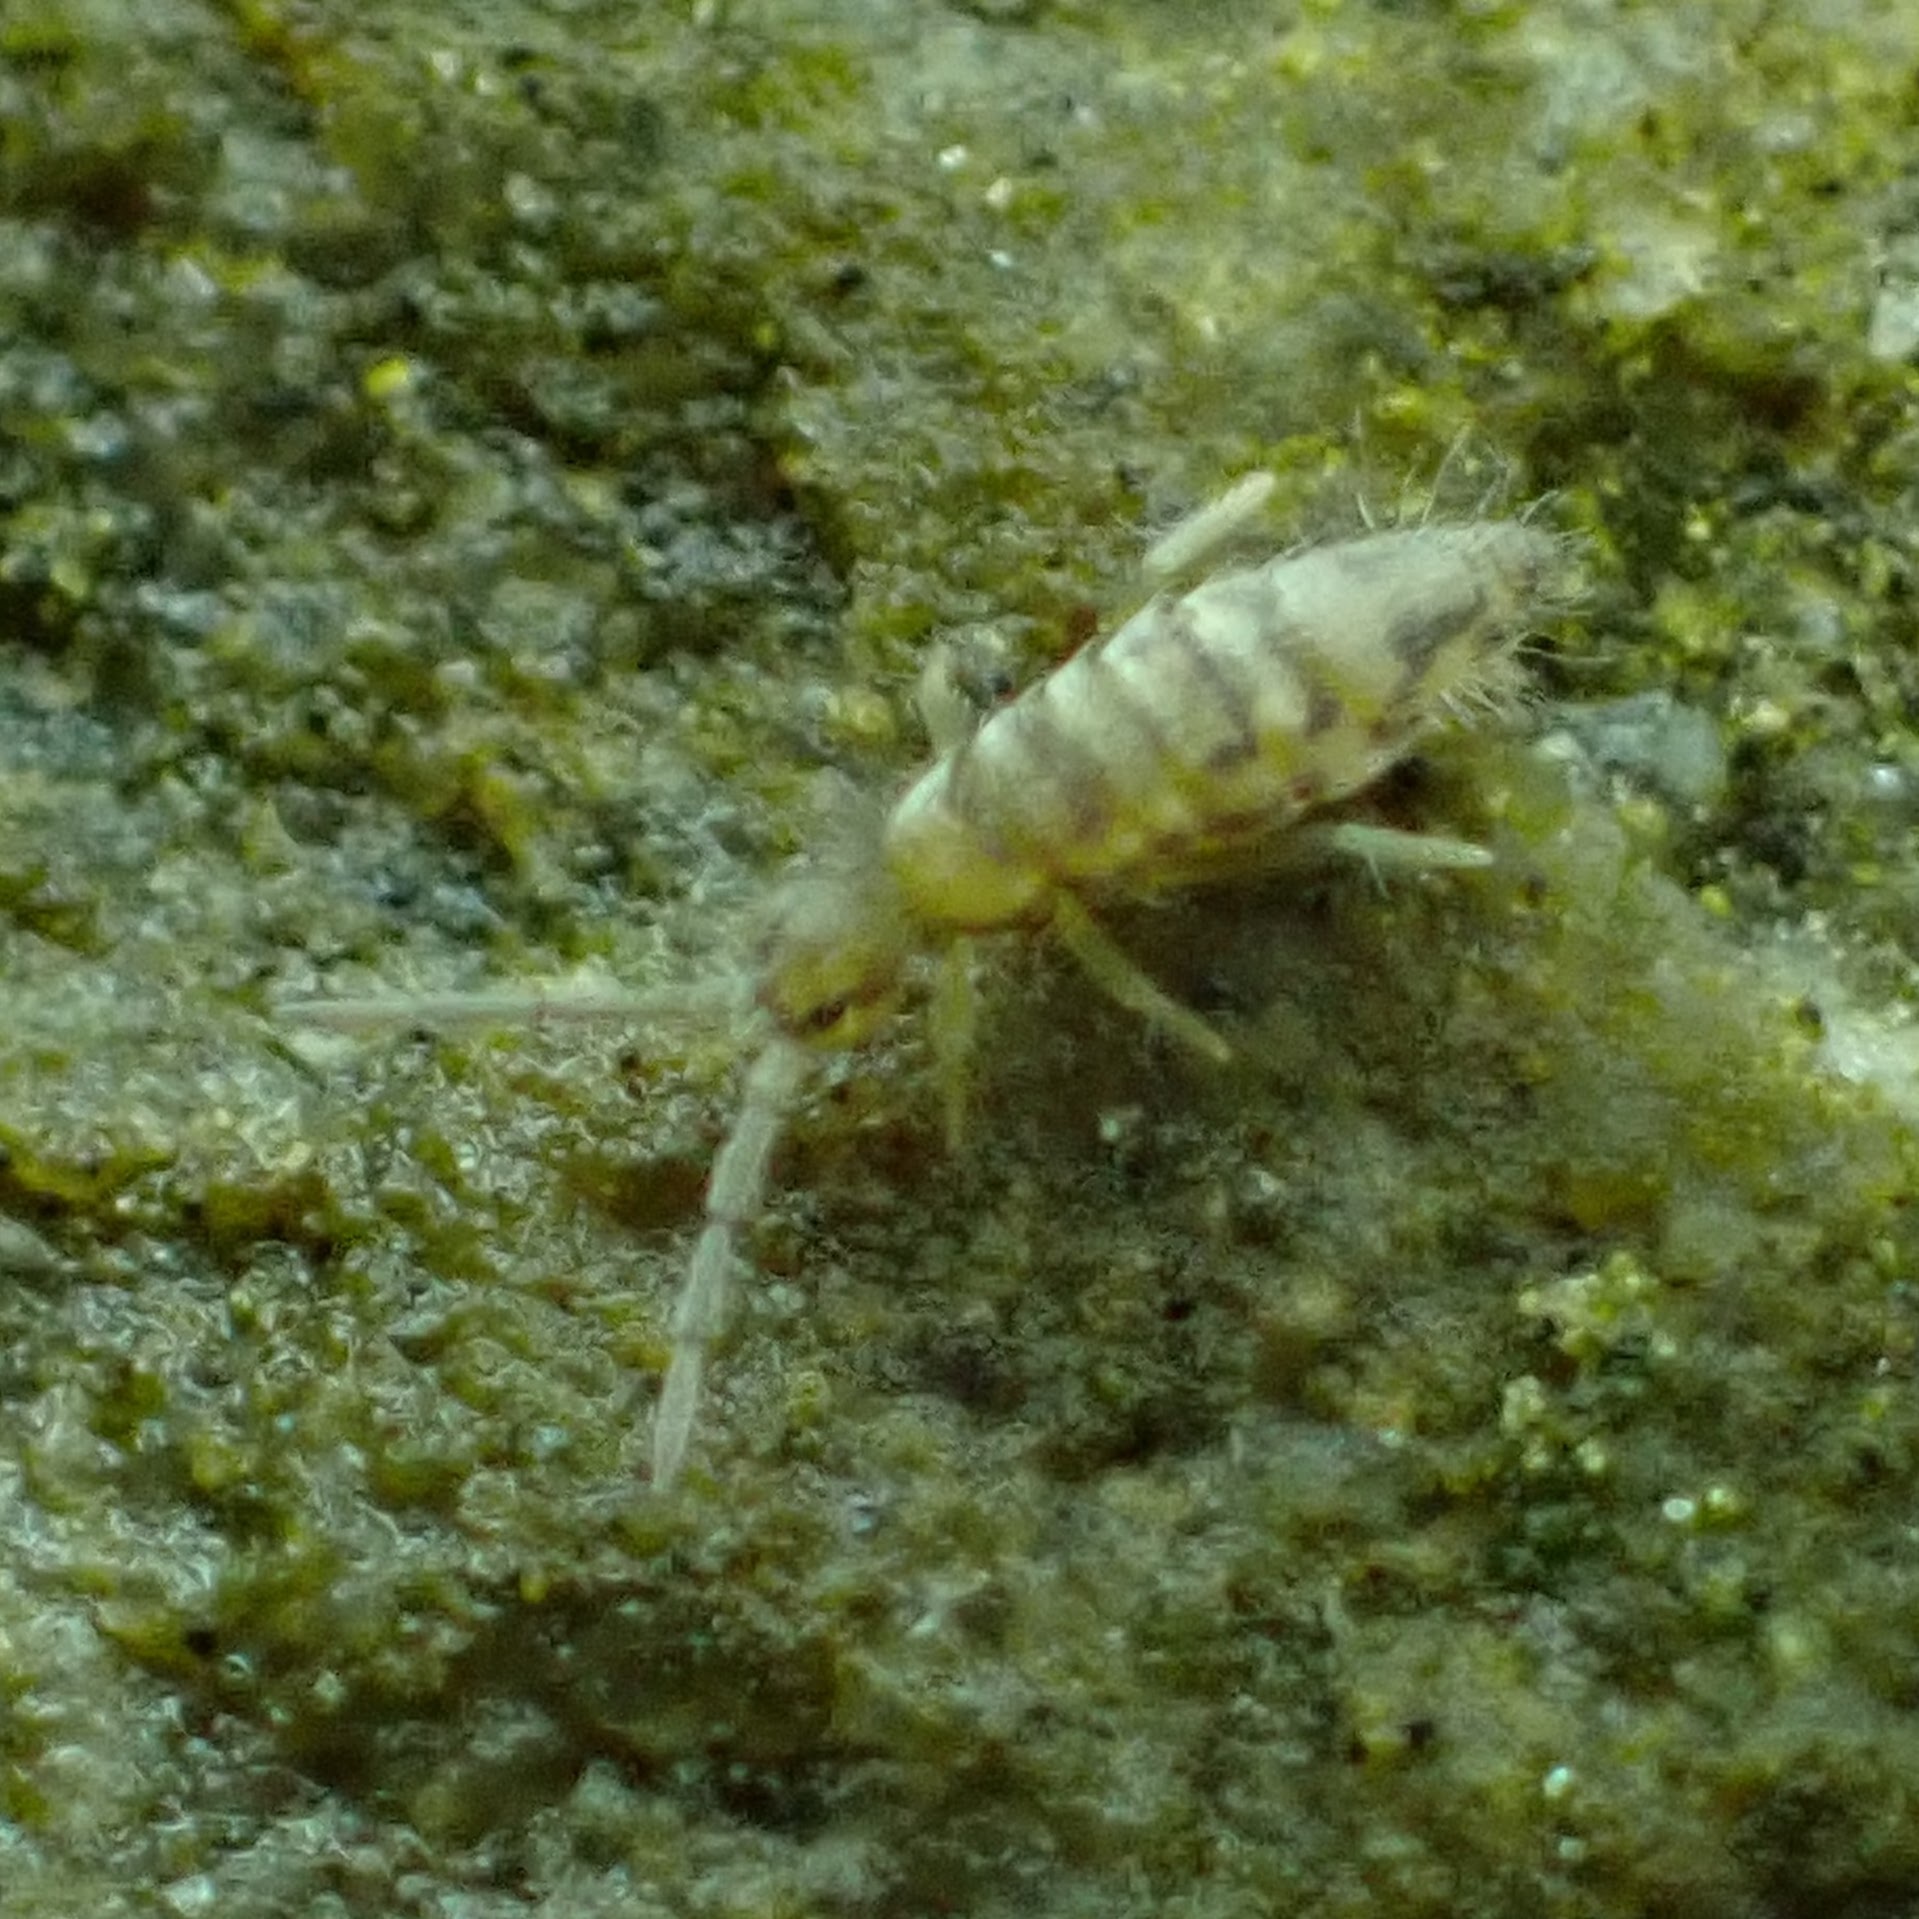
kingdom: Animalia
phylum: Arthropoda
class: Collembola
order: Entomobryomorpha
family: Entomobryidae
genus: Entomobrya
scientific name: Entomobrya nivalis
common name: Cosmopolitan springtail
